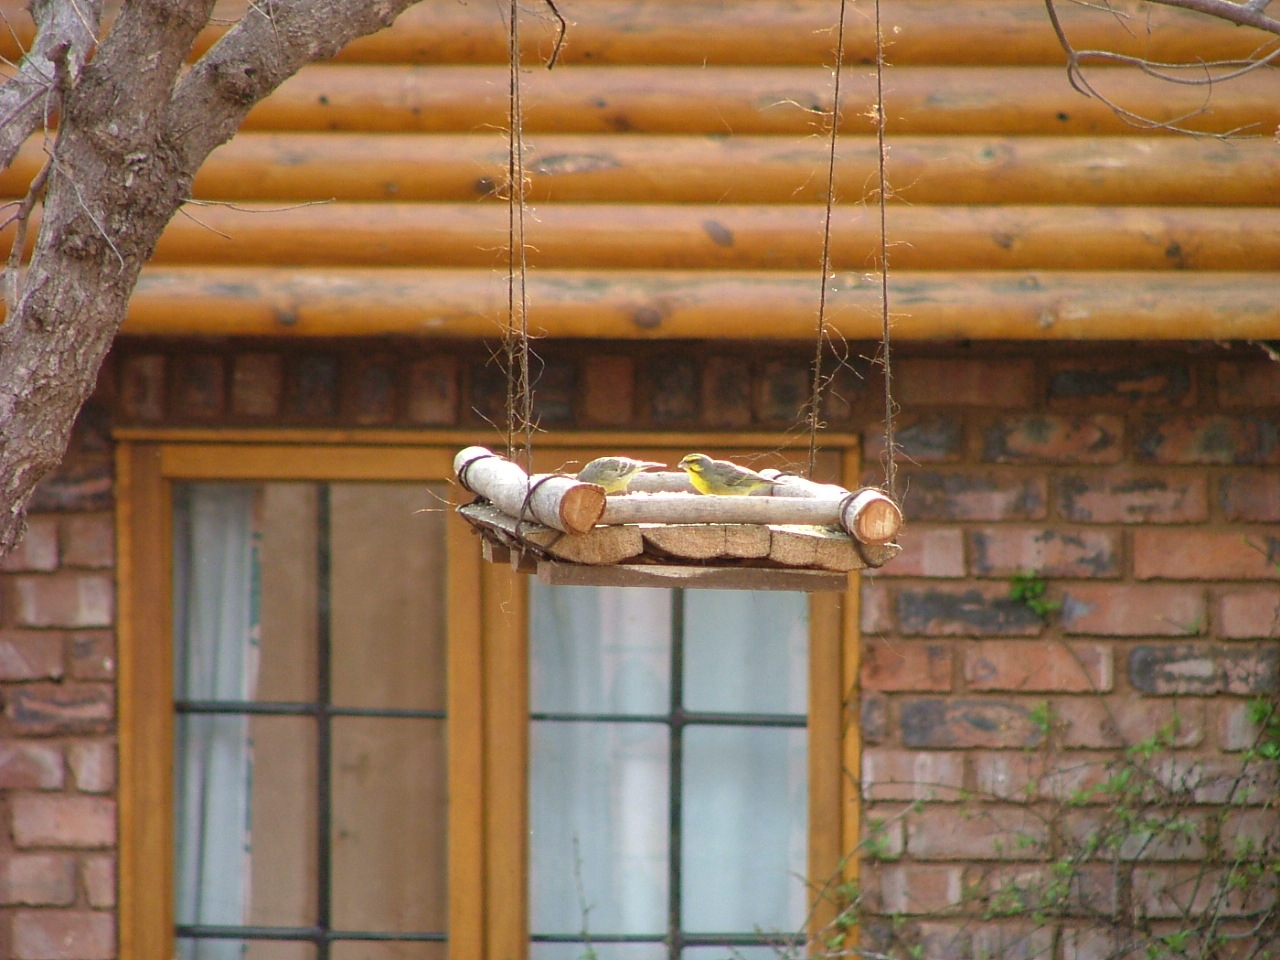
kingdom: Animalia
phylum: Chordata
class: Aves
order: Passeriformes
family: Fringillidae
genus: Crithagra
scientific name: Crithagra mozambica
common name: Yellow-fronted canary
